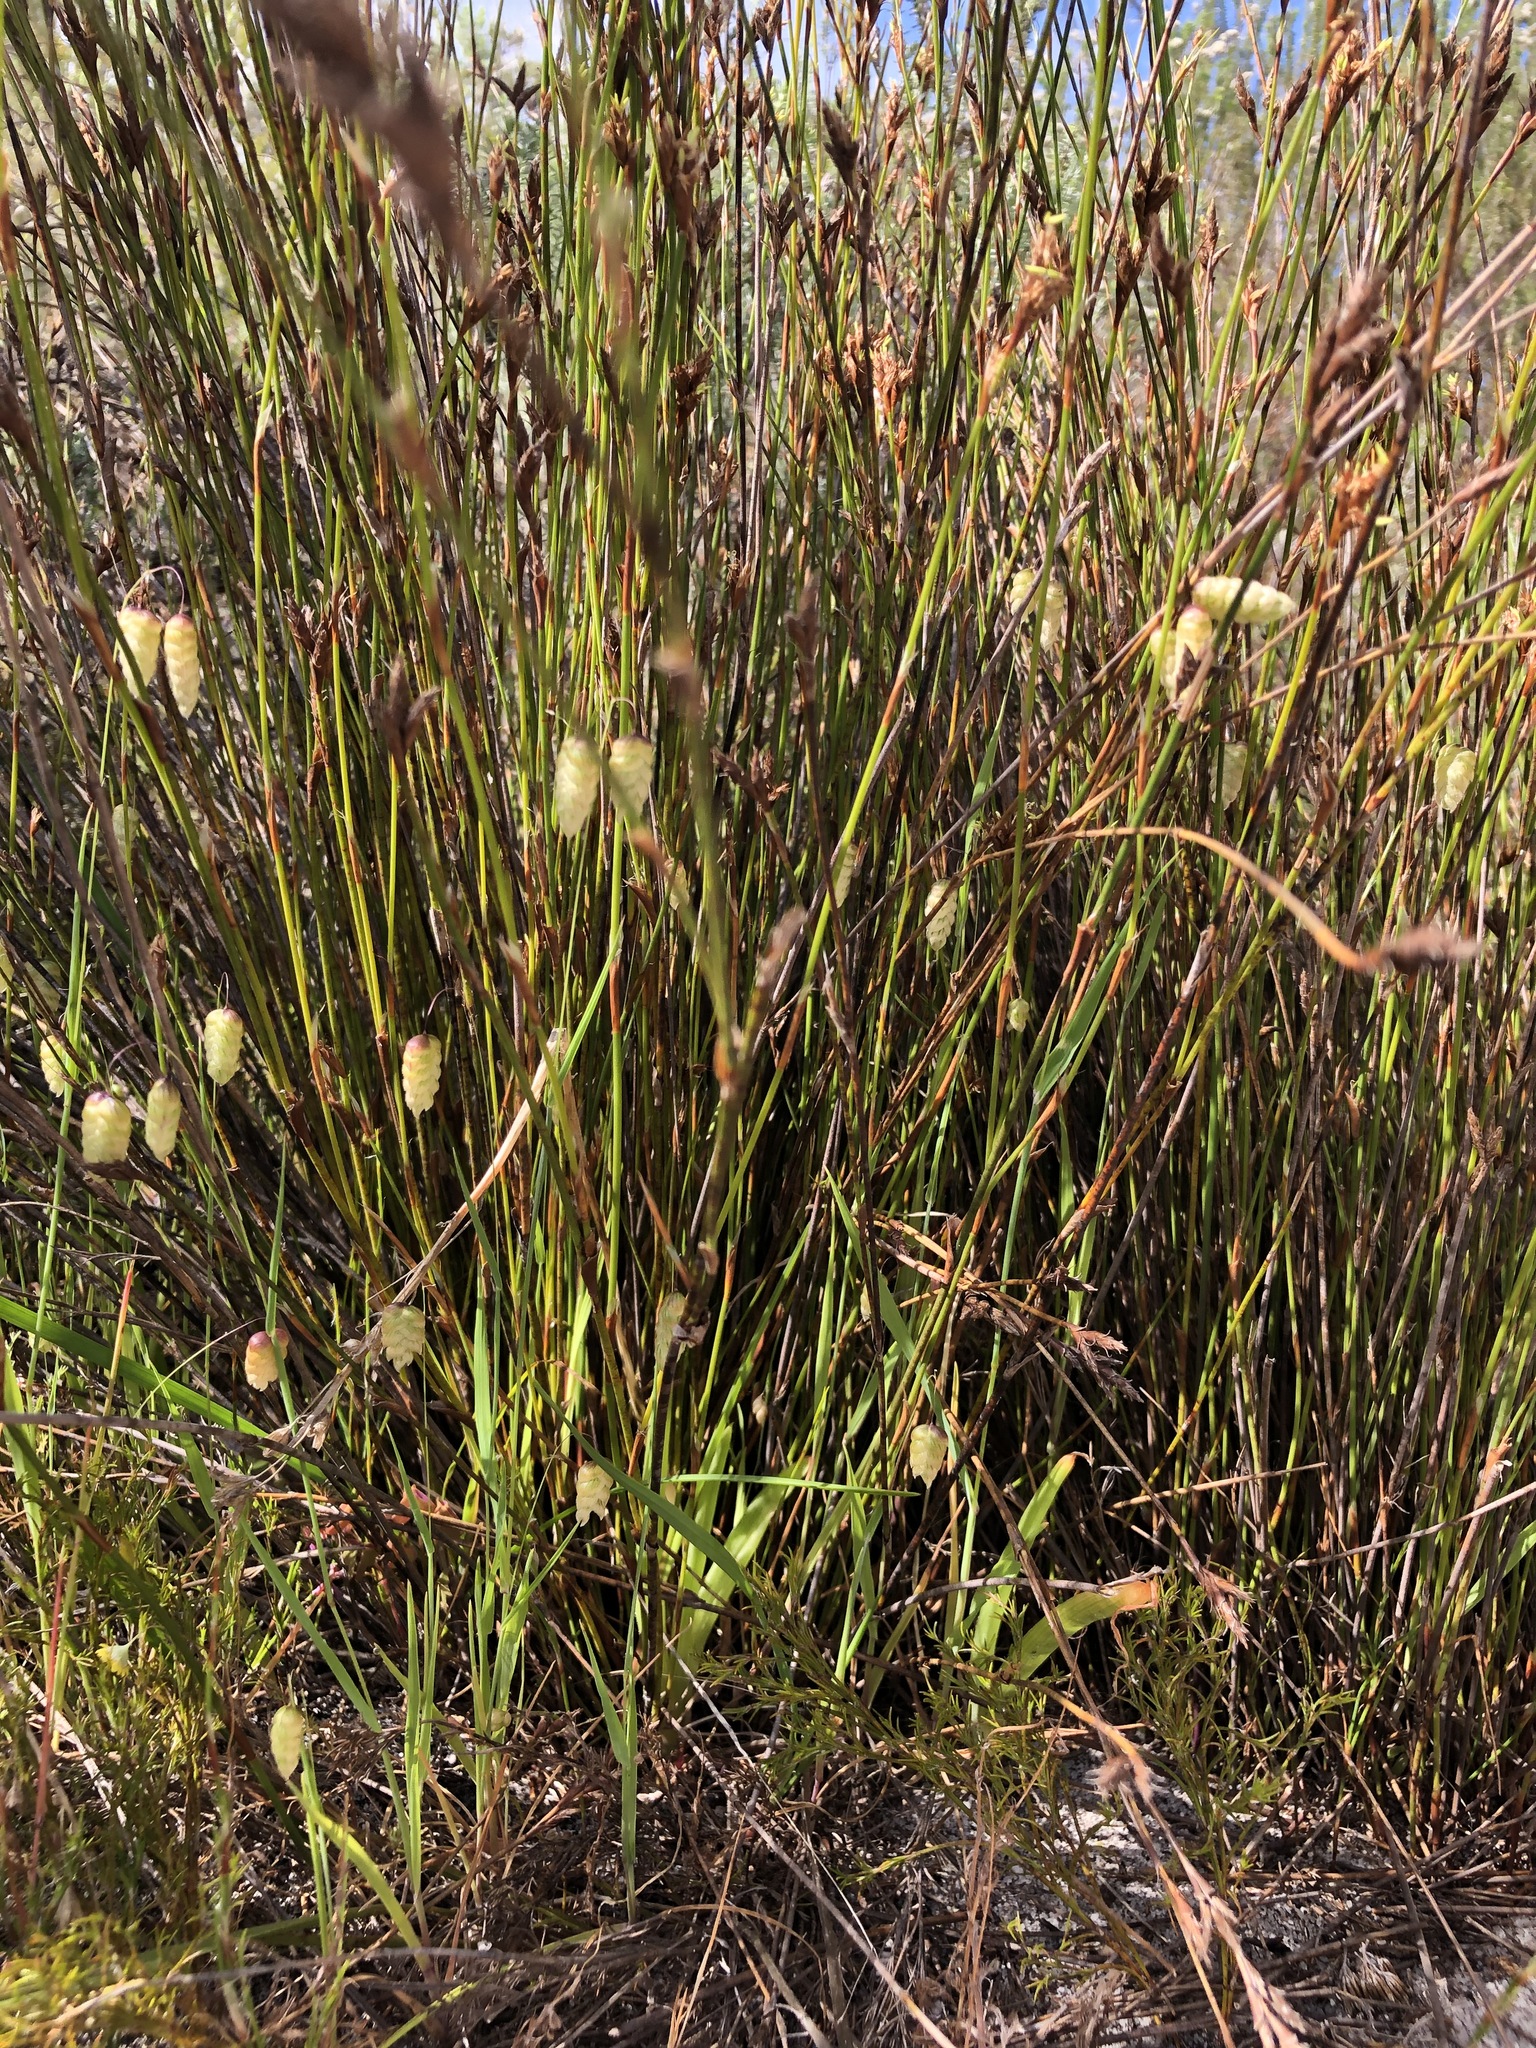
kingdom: Plantae
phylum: Tracheophyta
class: Liliopsida
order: Poales
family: Poaceae
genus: Briza
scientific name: Briza maxima
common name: Big quakinggrass
